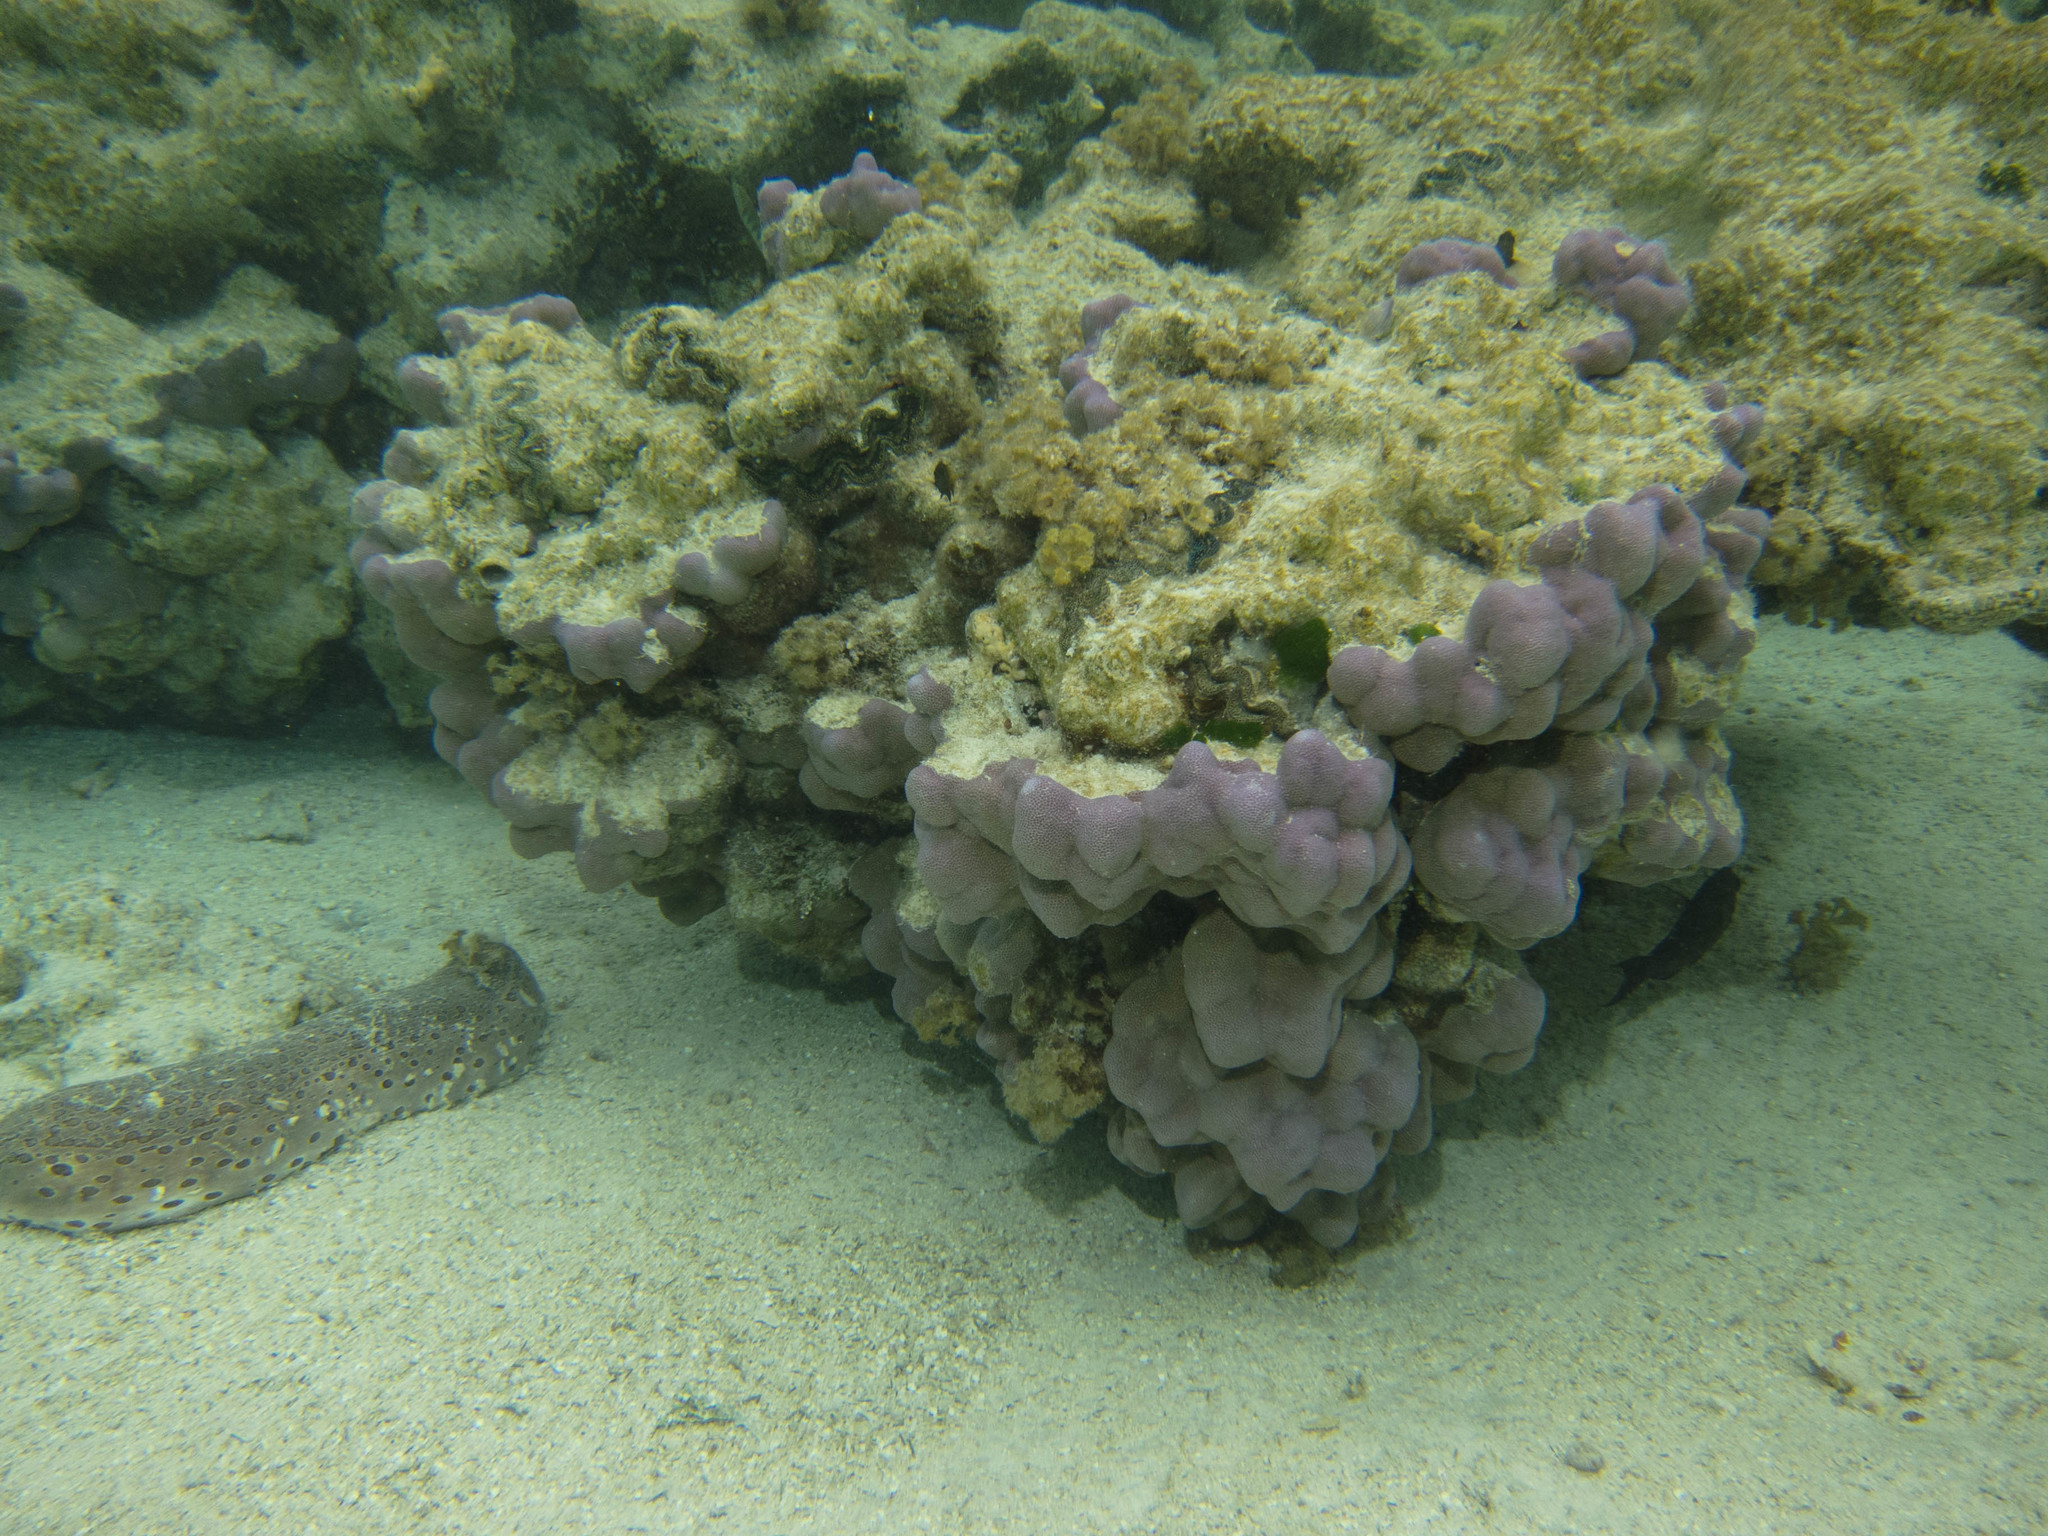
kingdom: Animalia
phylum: Echinodermata
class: Holothuroidea
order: Holothuriida
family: Holothuriidae
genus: Bohadschia
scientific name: Bohadschia argus
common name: Leopardfish
